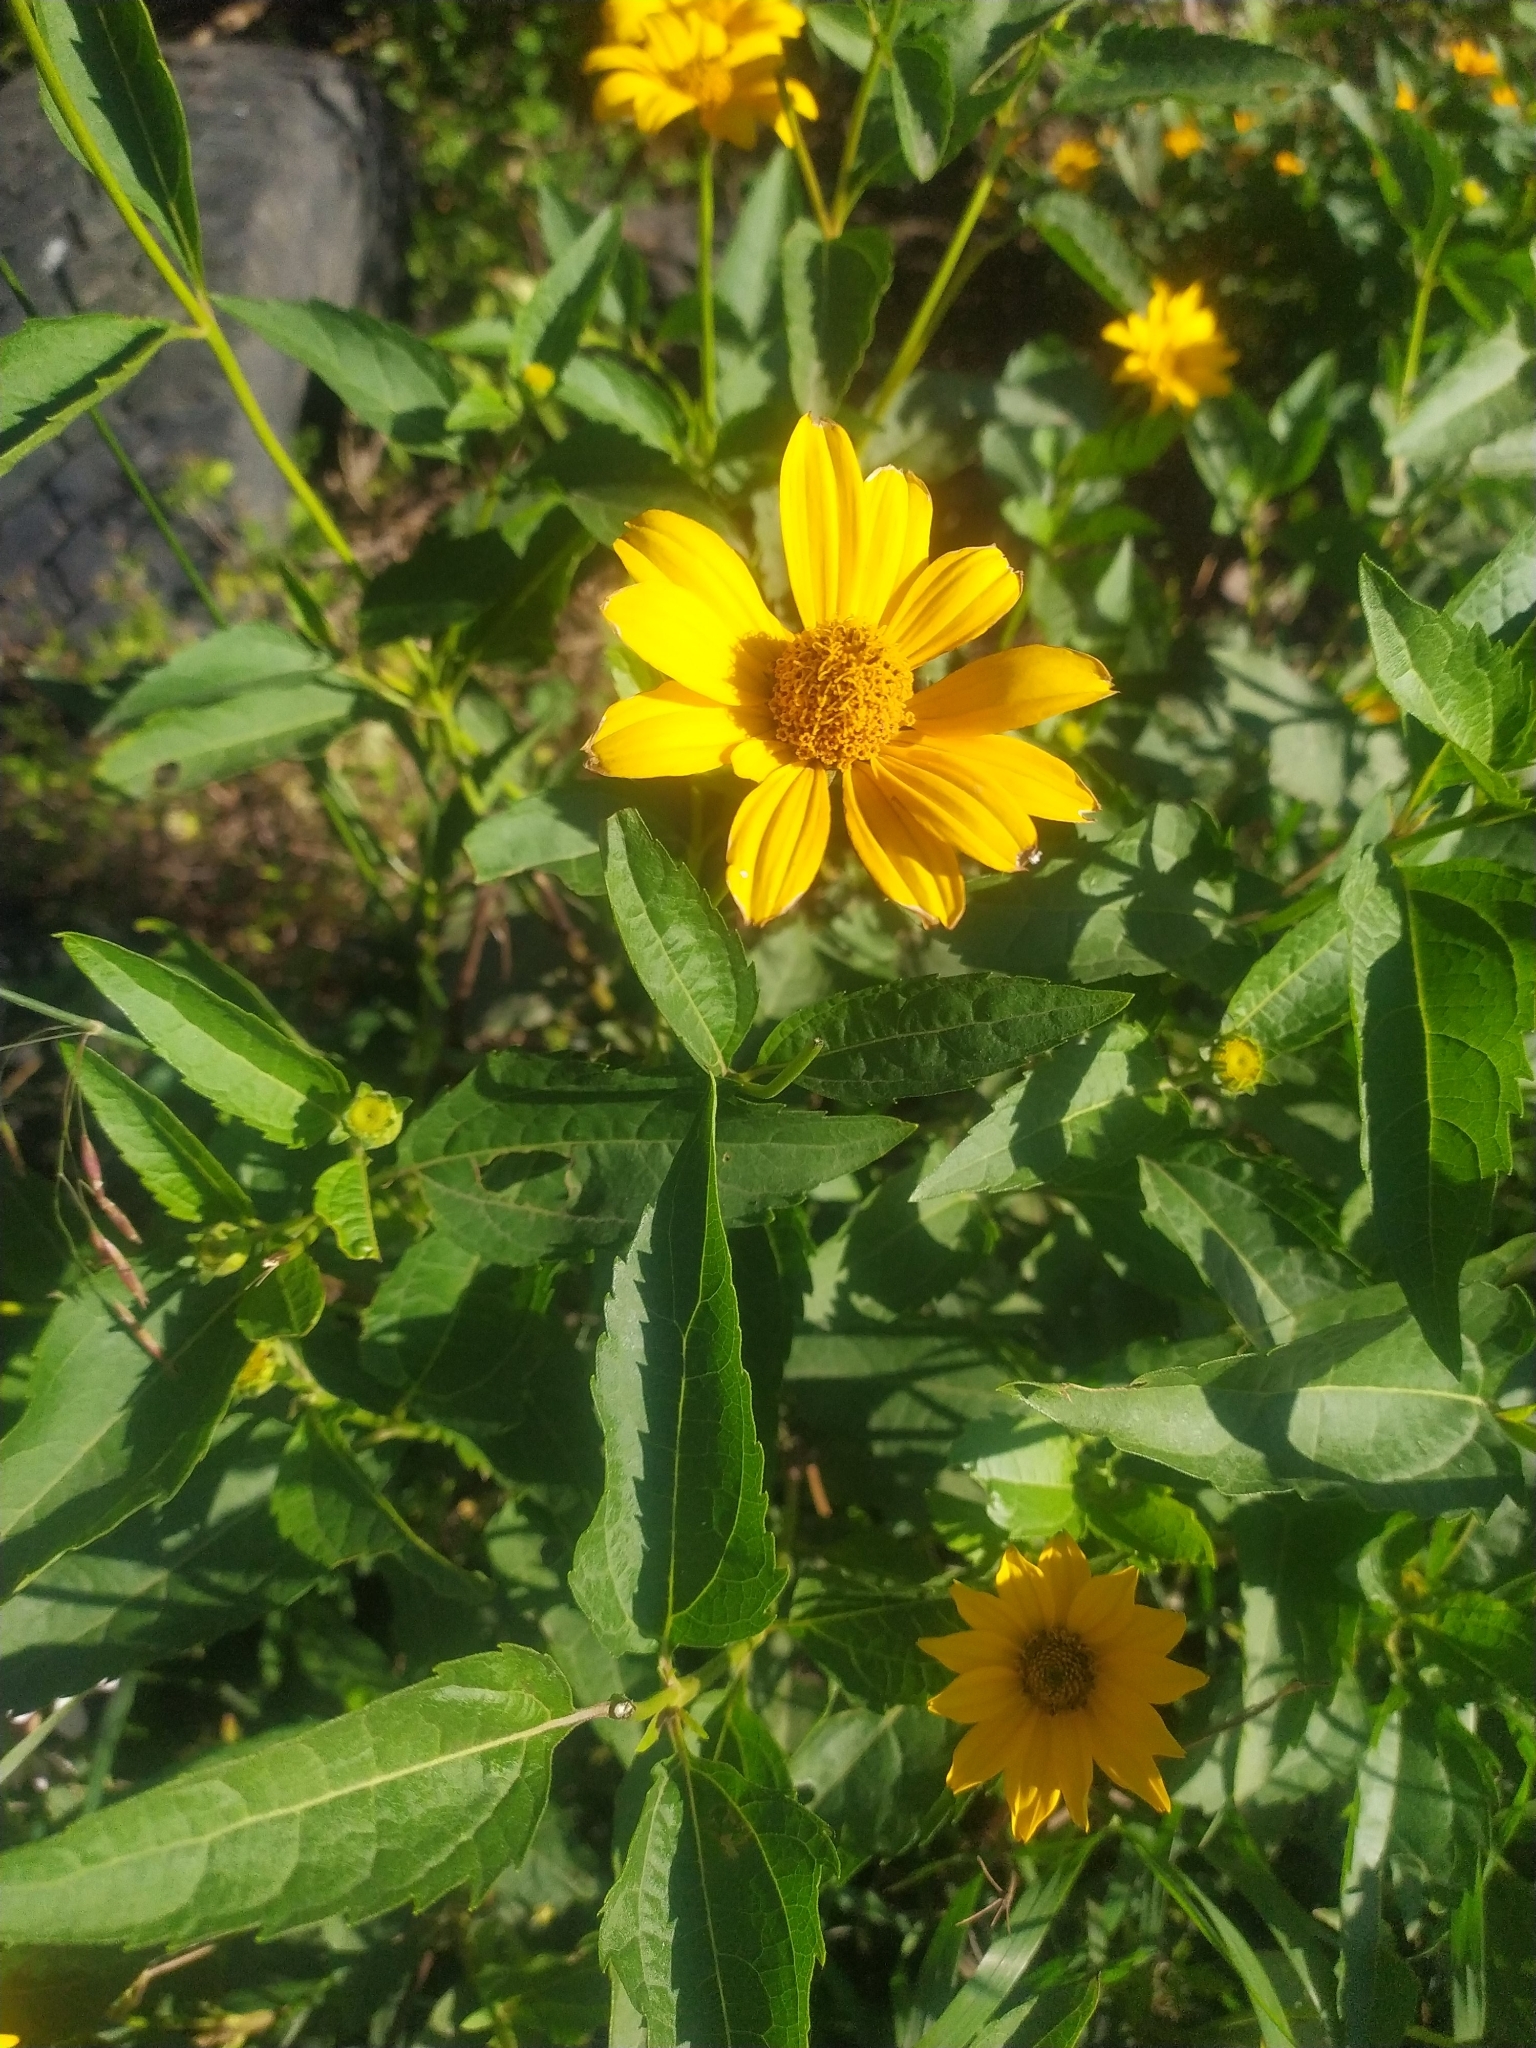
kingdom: Plantae
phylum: Tracheophyta
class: Magnoliopsida
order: Asterales
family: Asteraceae
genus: Heliopsis
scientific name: Heliopsis helianthoides
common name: False sunflower
